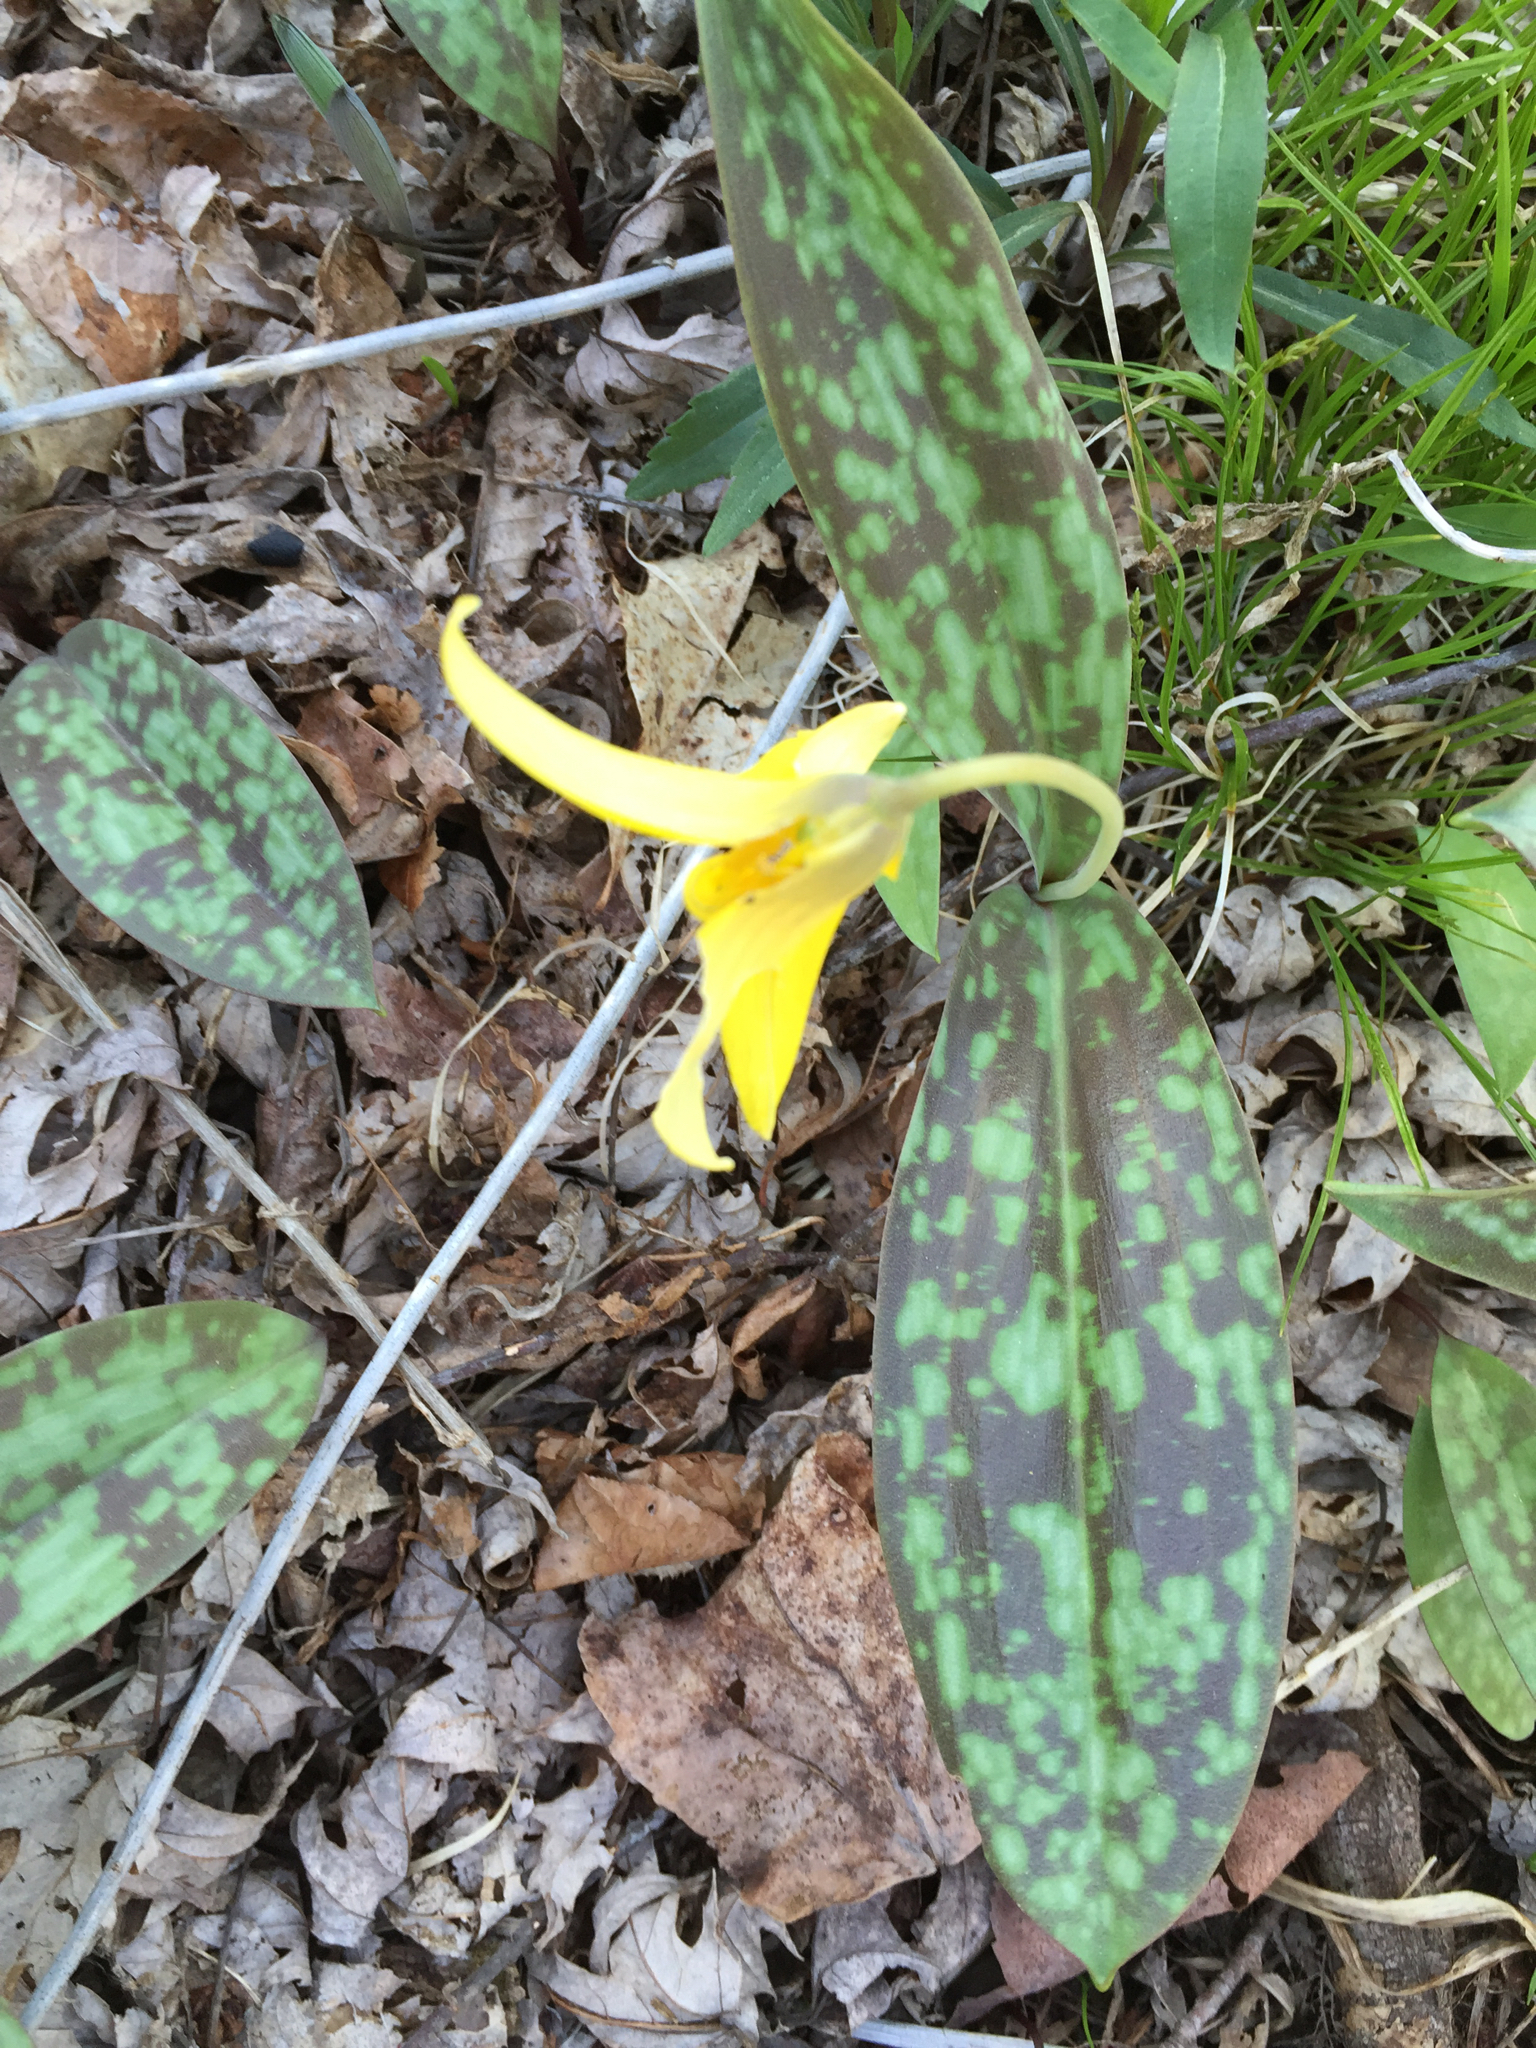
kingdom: Plantae
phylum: Tracheophyta
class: Liliopsida
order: Liliales
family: Liliaceae
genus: Erythronium
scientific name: Erythronium americanum
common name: Yellow adder's-tongue
